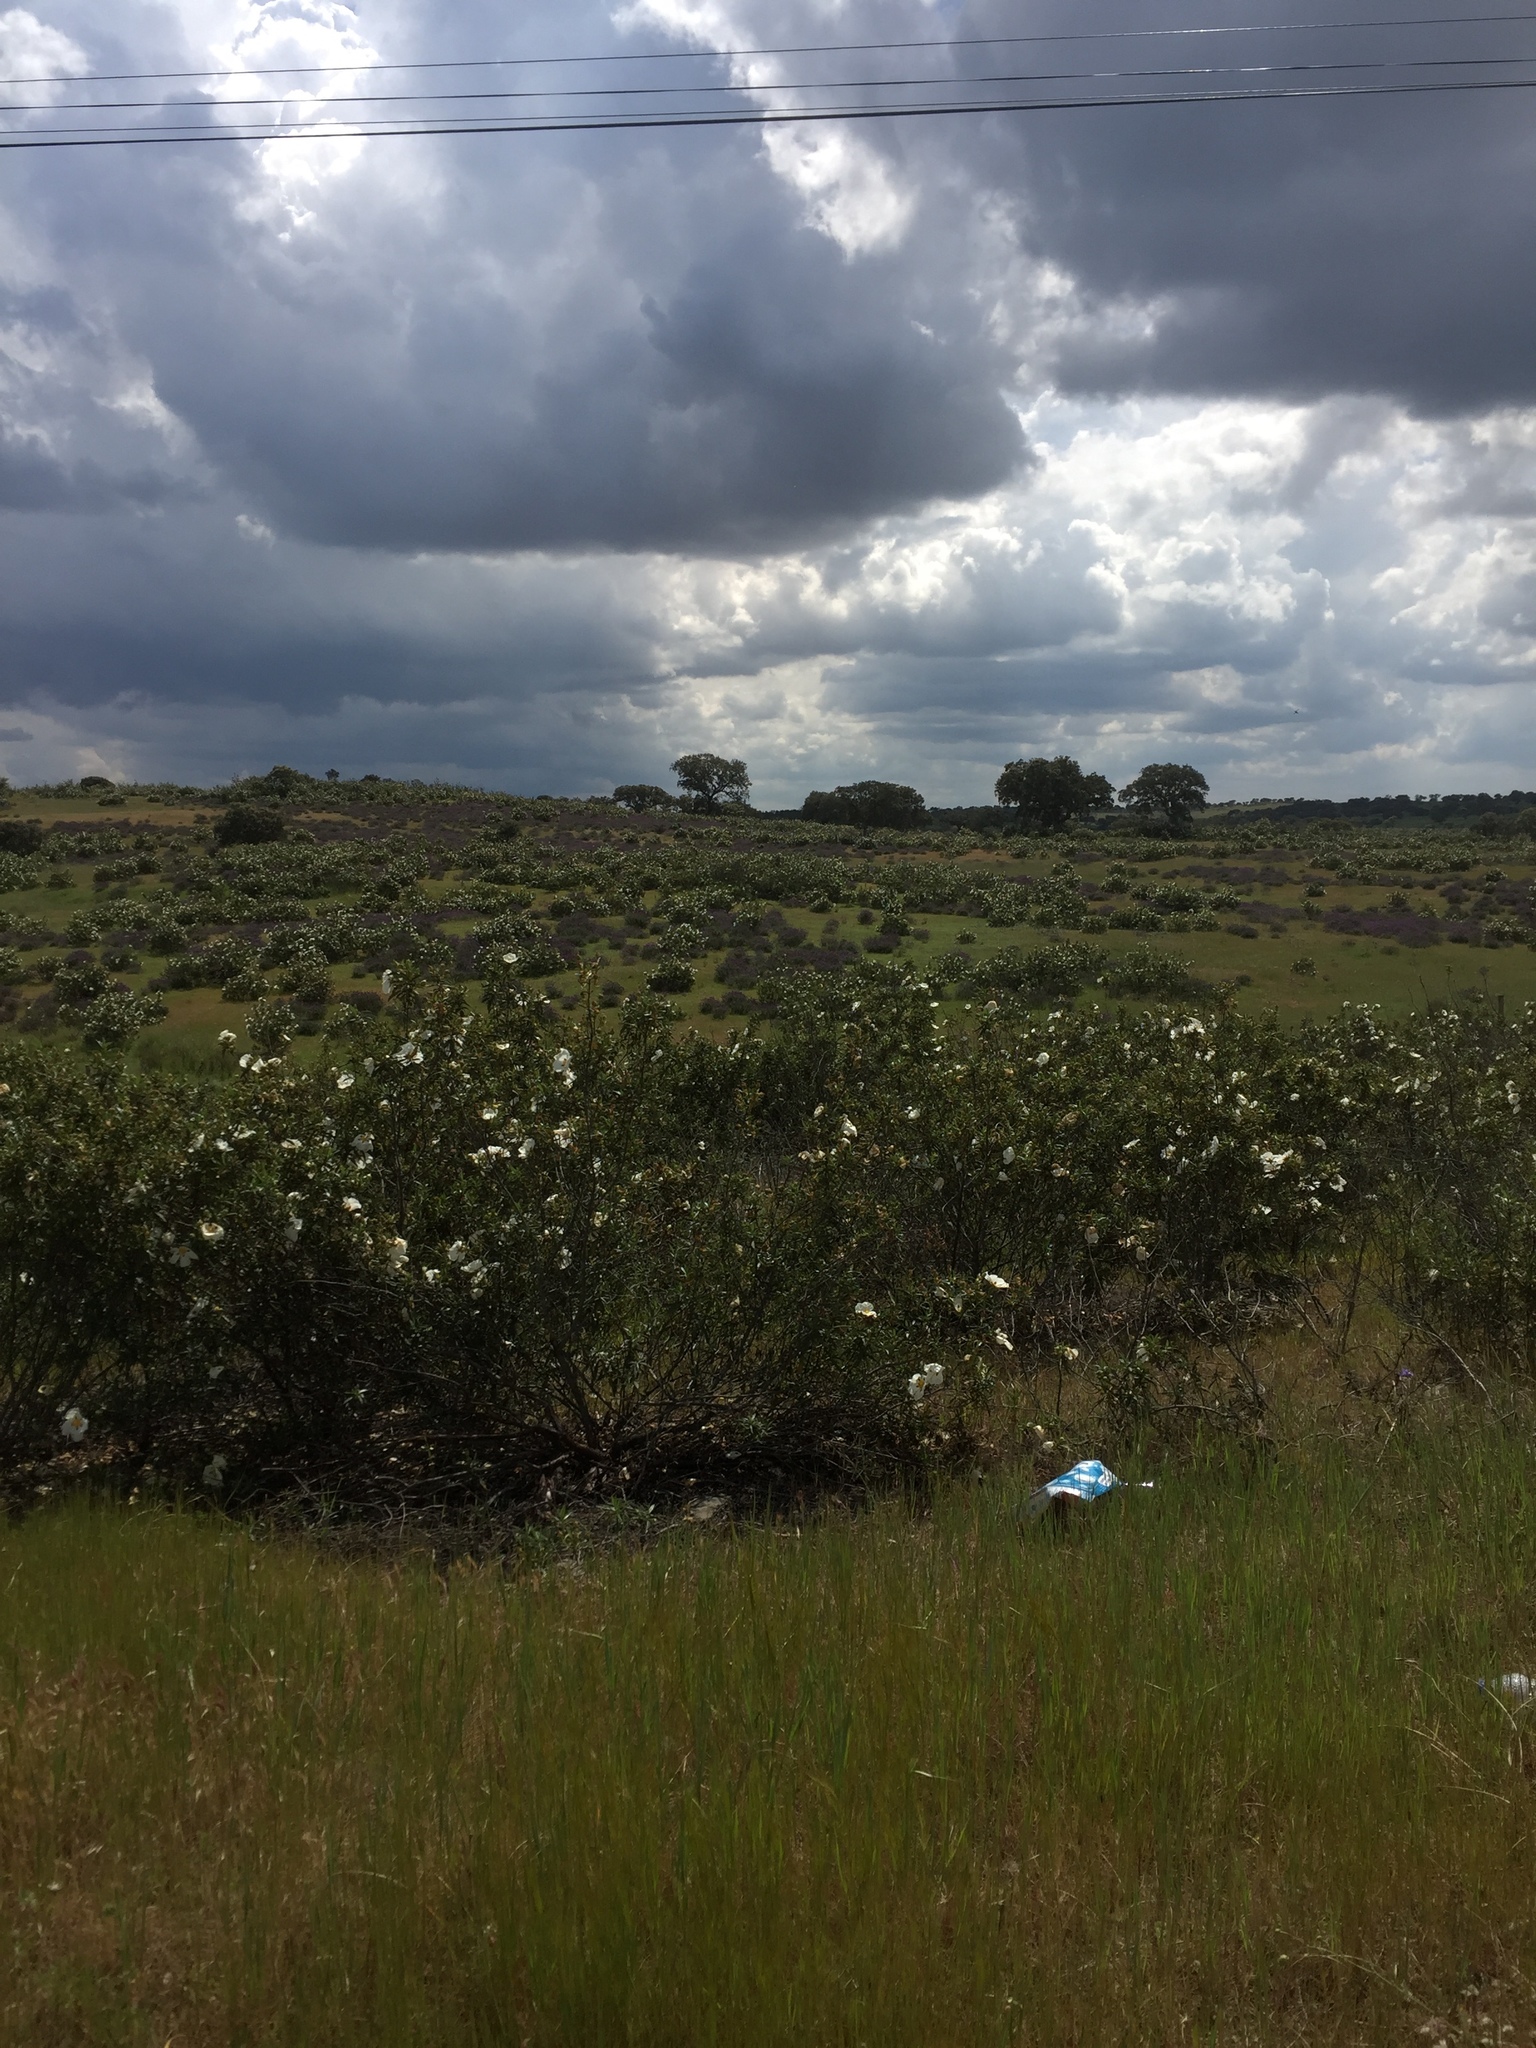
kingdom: Plantae
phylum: Tracheophyta
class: Magnoliopsida
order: Malvales
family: Cistaceae
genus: Cistus
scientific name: Cistus ladanifer
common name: Common gum cistus
